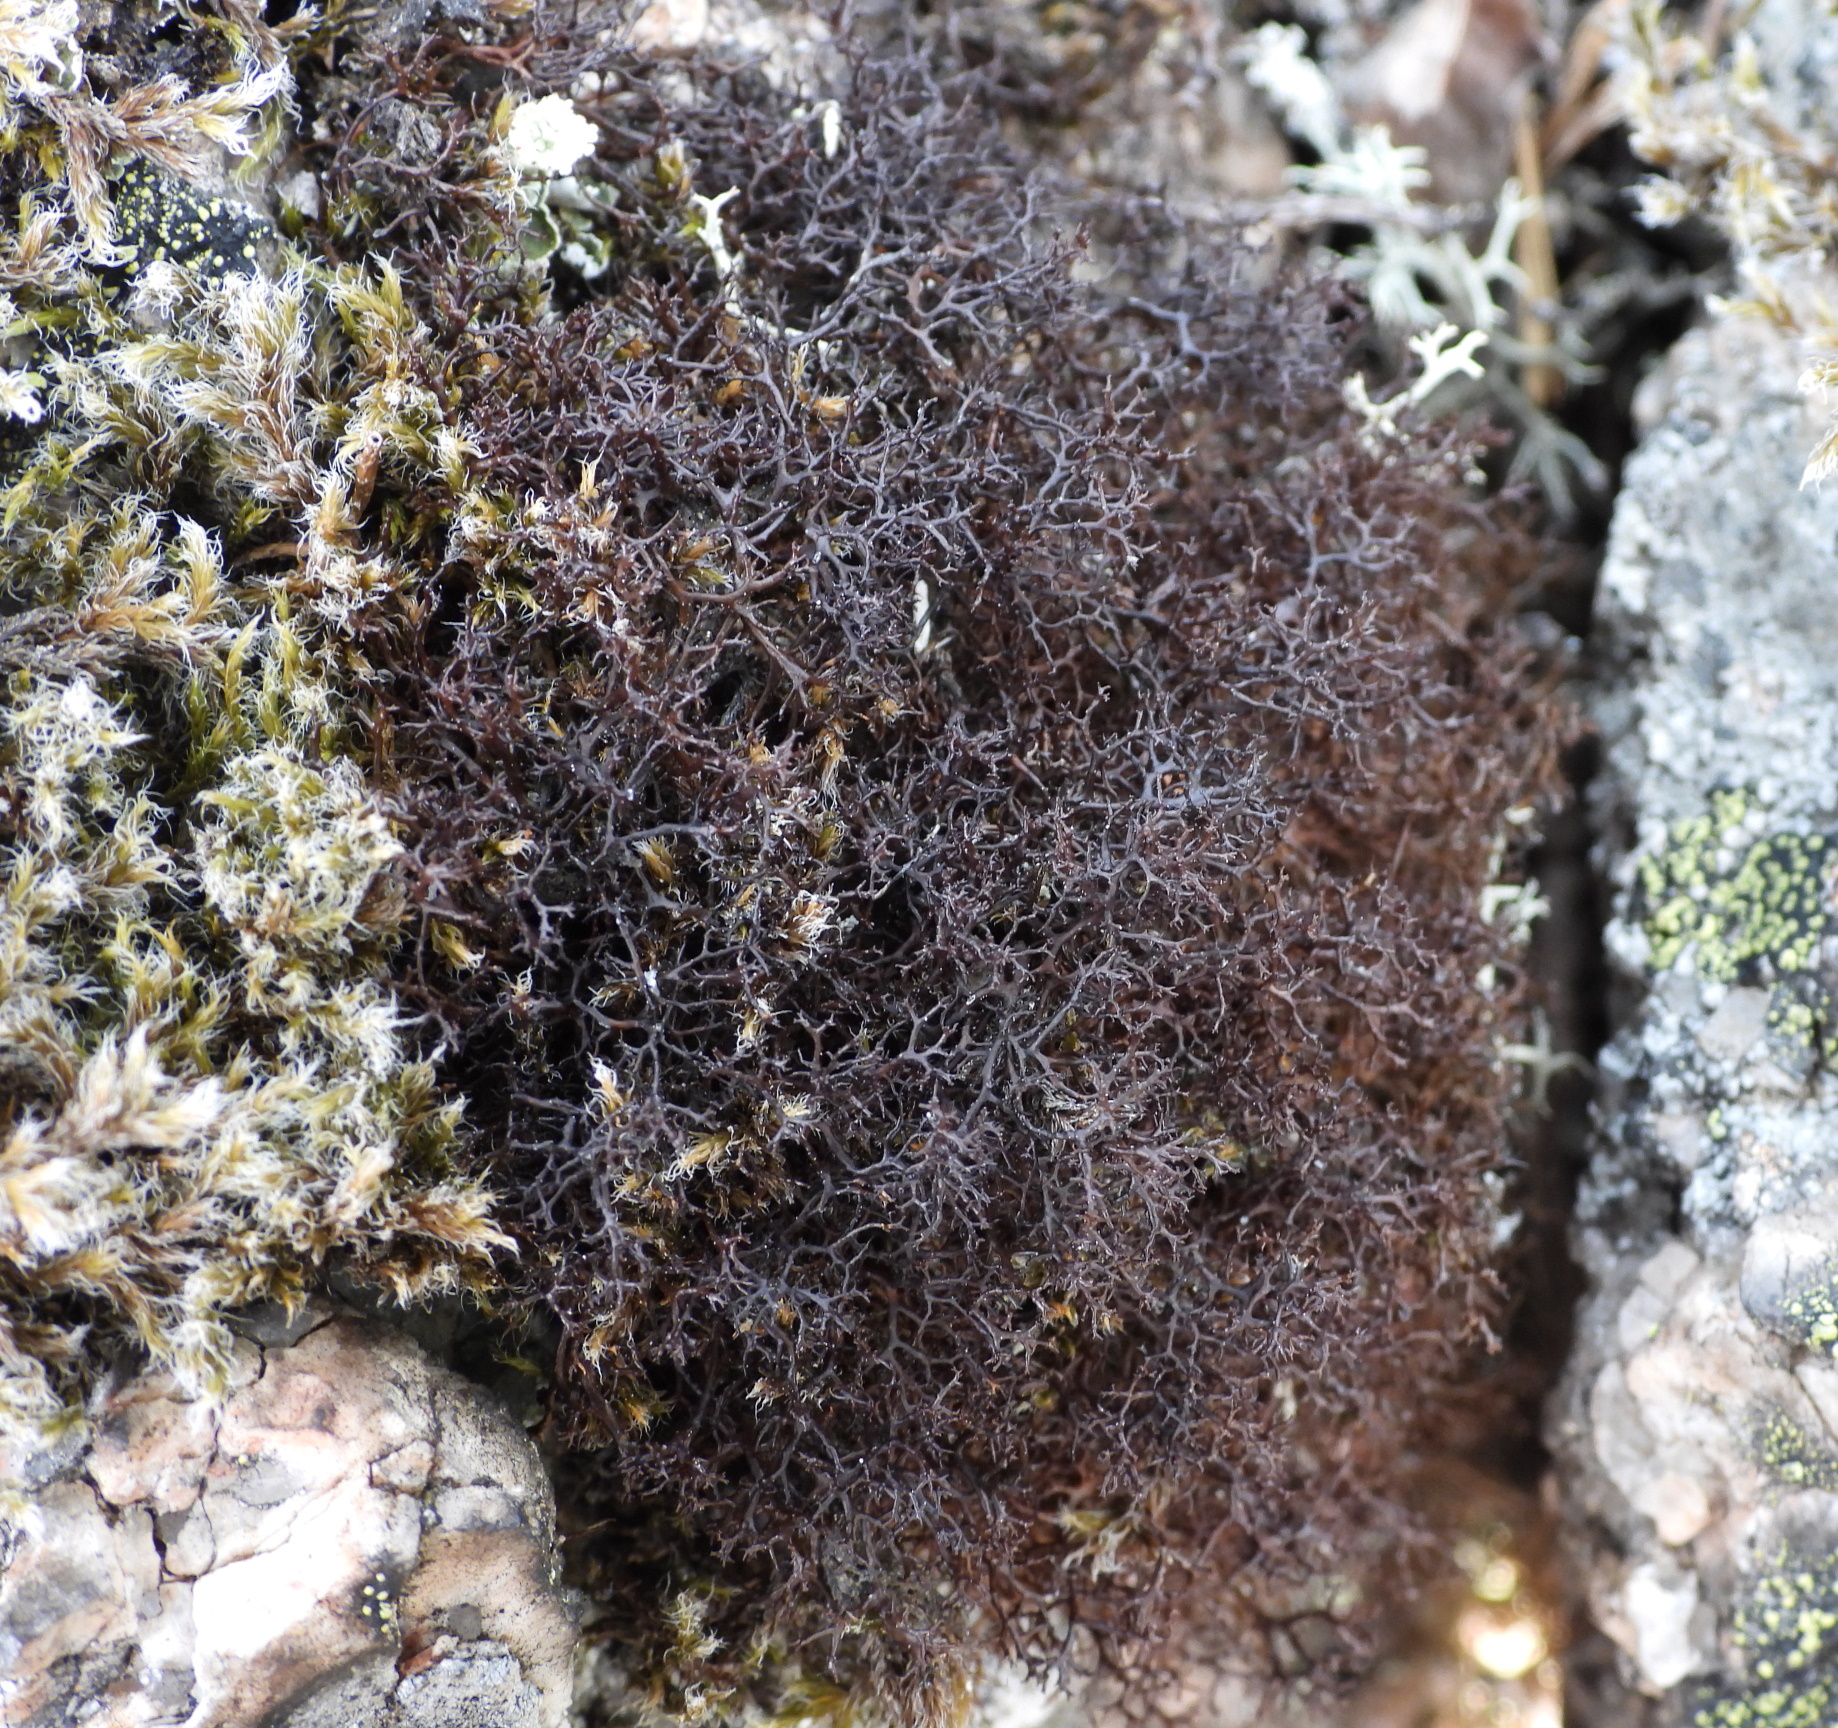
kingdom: Fungi
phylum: Ascomycota
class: Lecanoromycetes
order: Lecanorales
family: Parmeliaceae
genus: Cetraria
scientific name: Cetraria muricata
